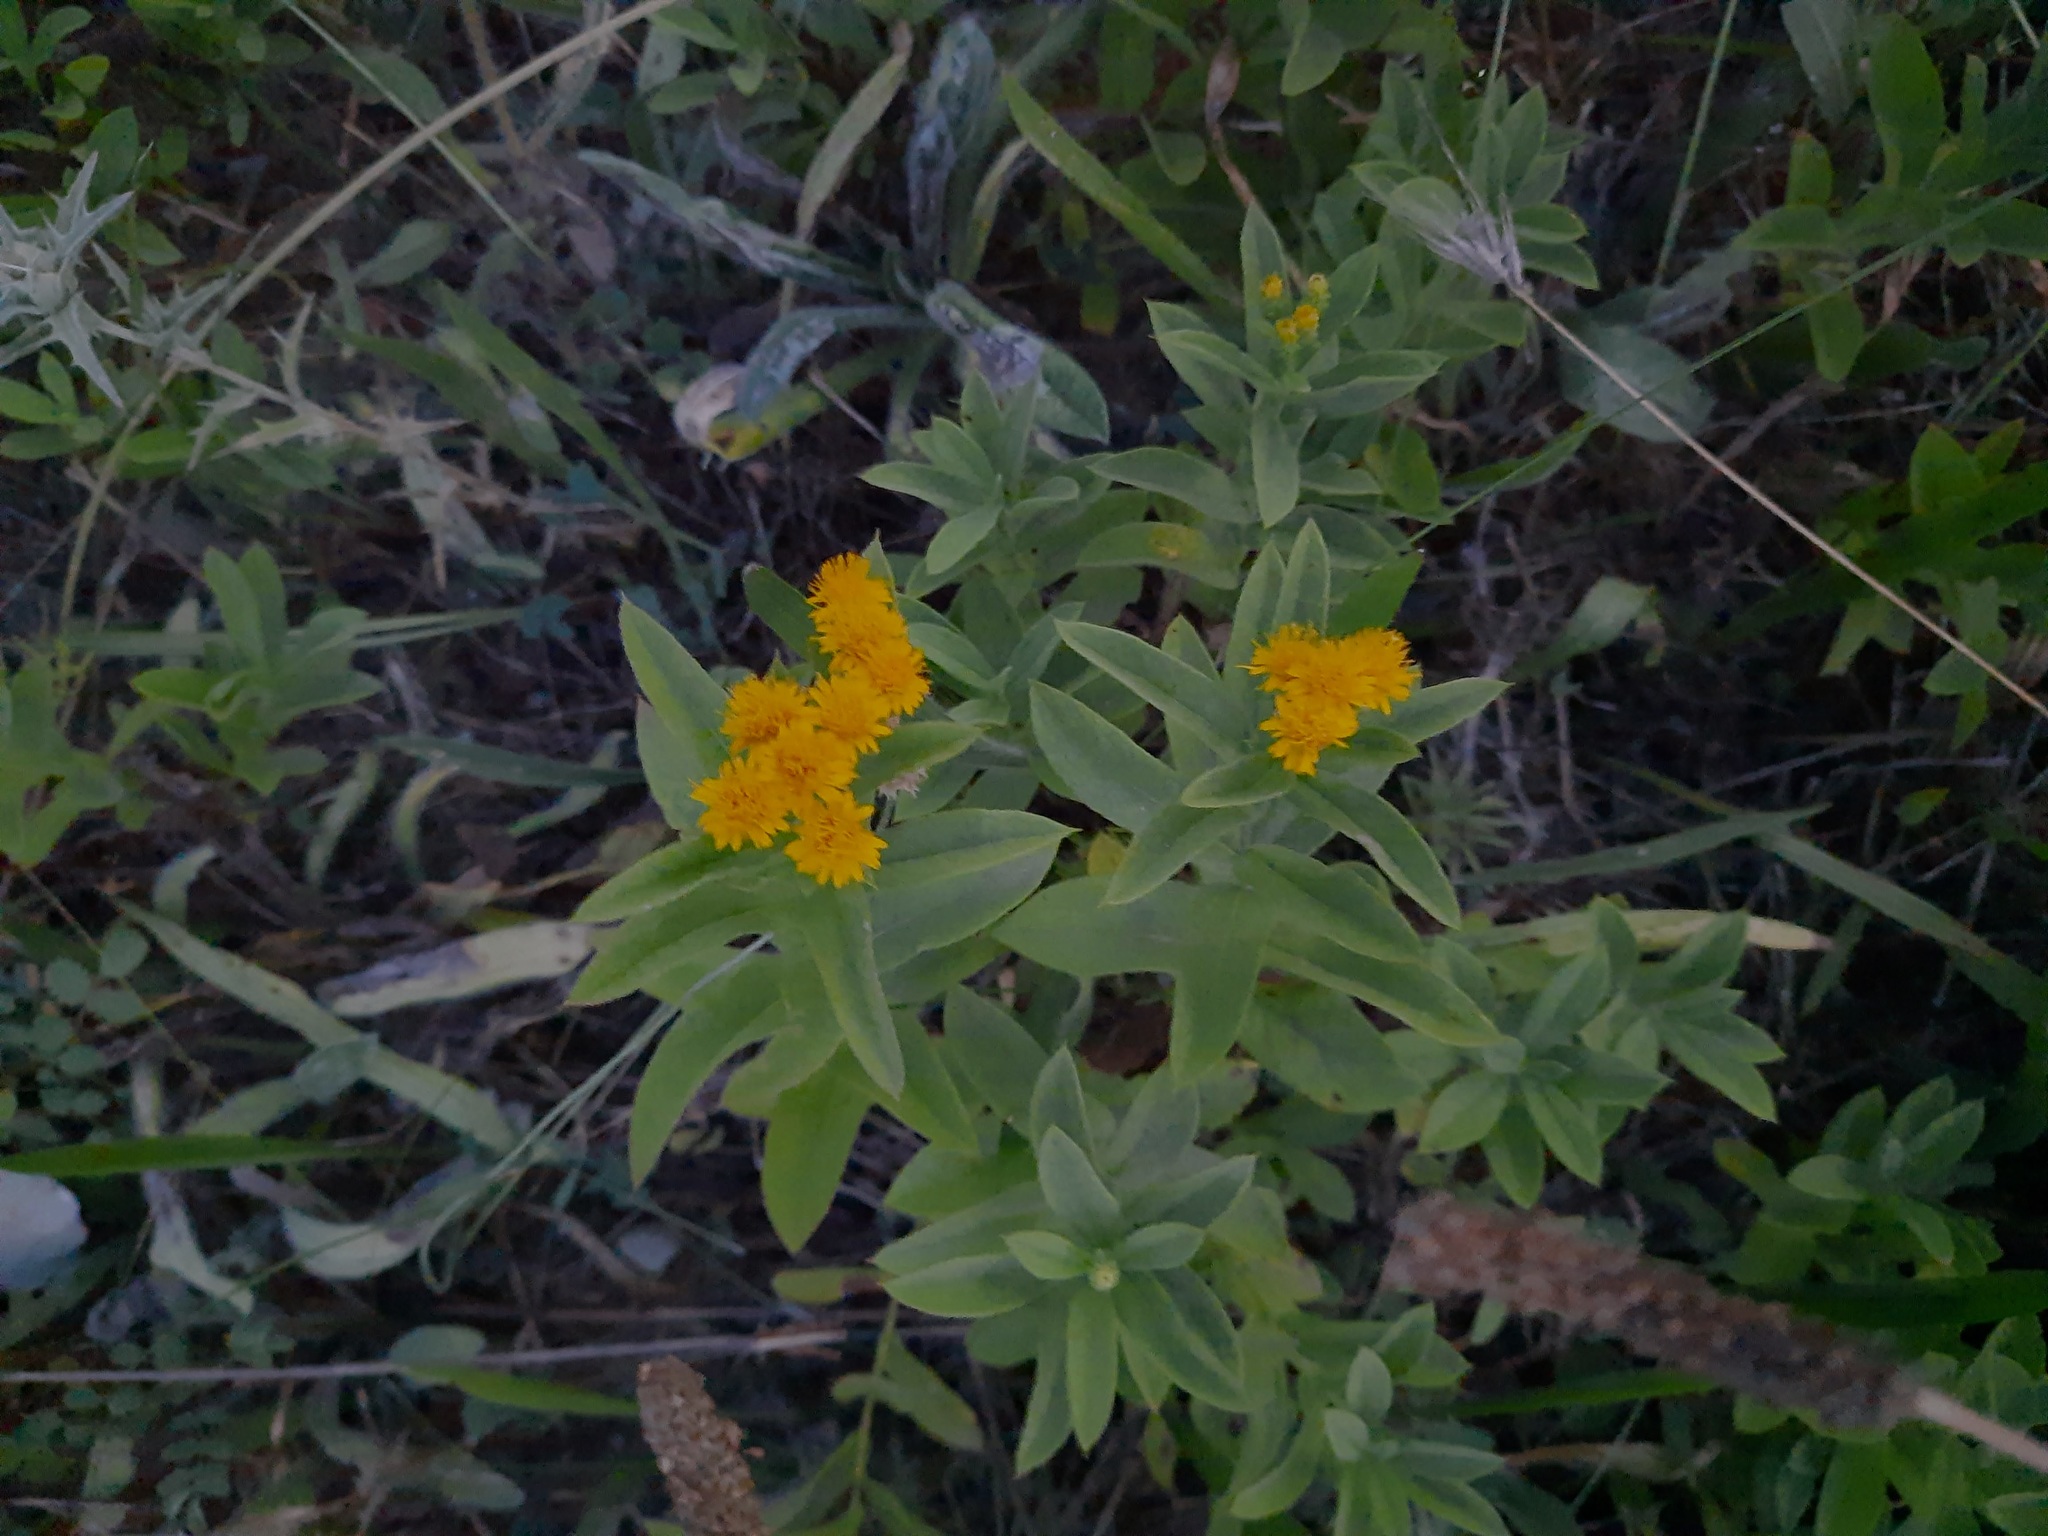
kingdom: Plantae
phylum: Tracheophyta
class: Magnoliopsida
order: Asterales
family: Asteraceae
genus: Pentanema
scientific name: Pentanema germanicum
